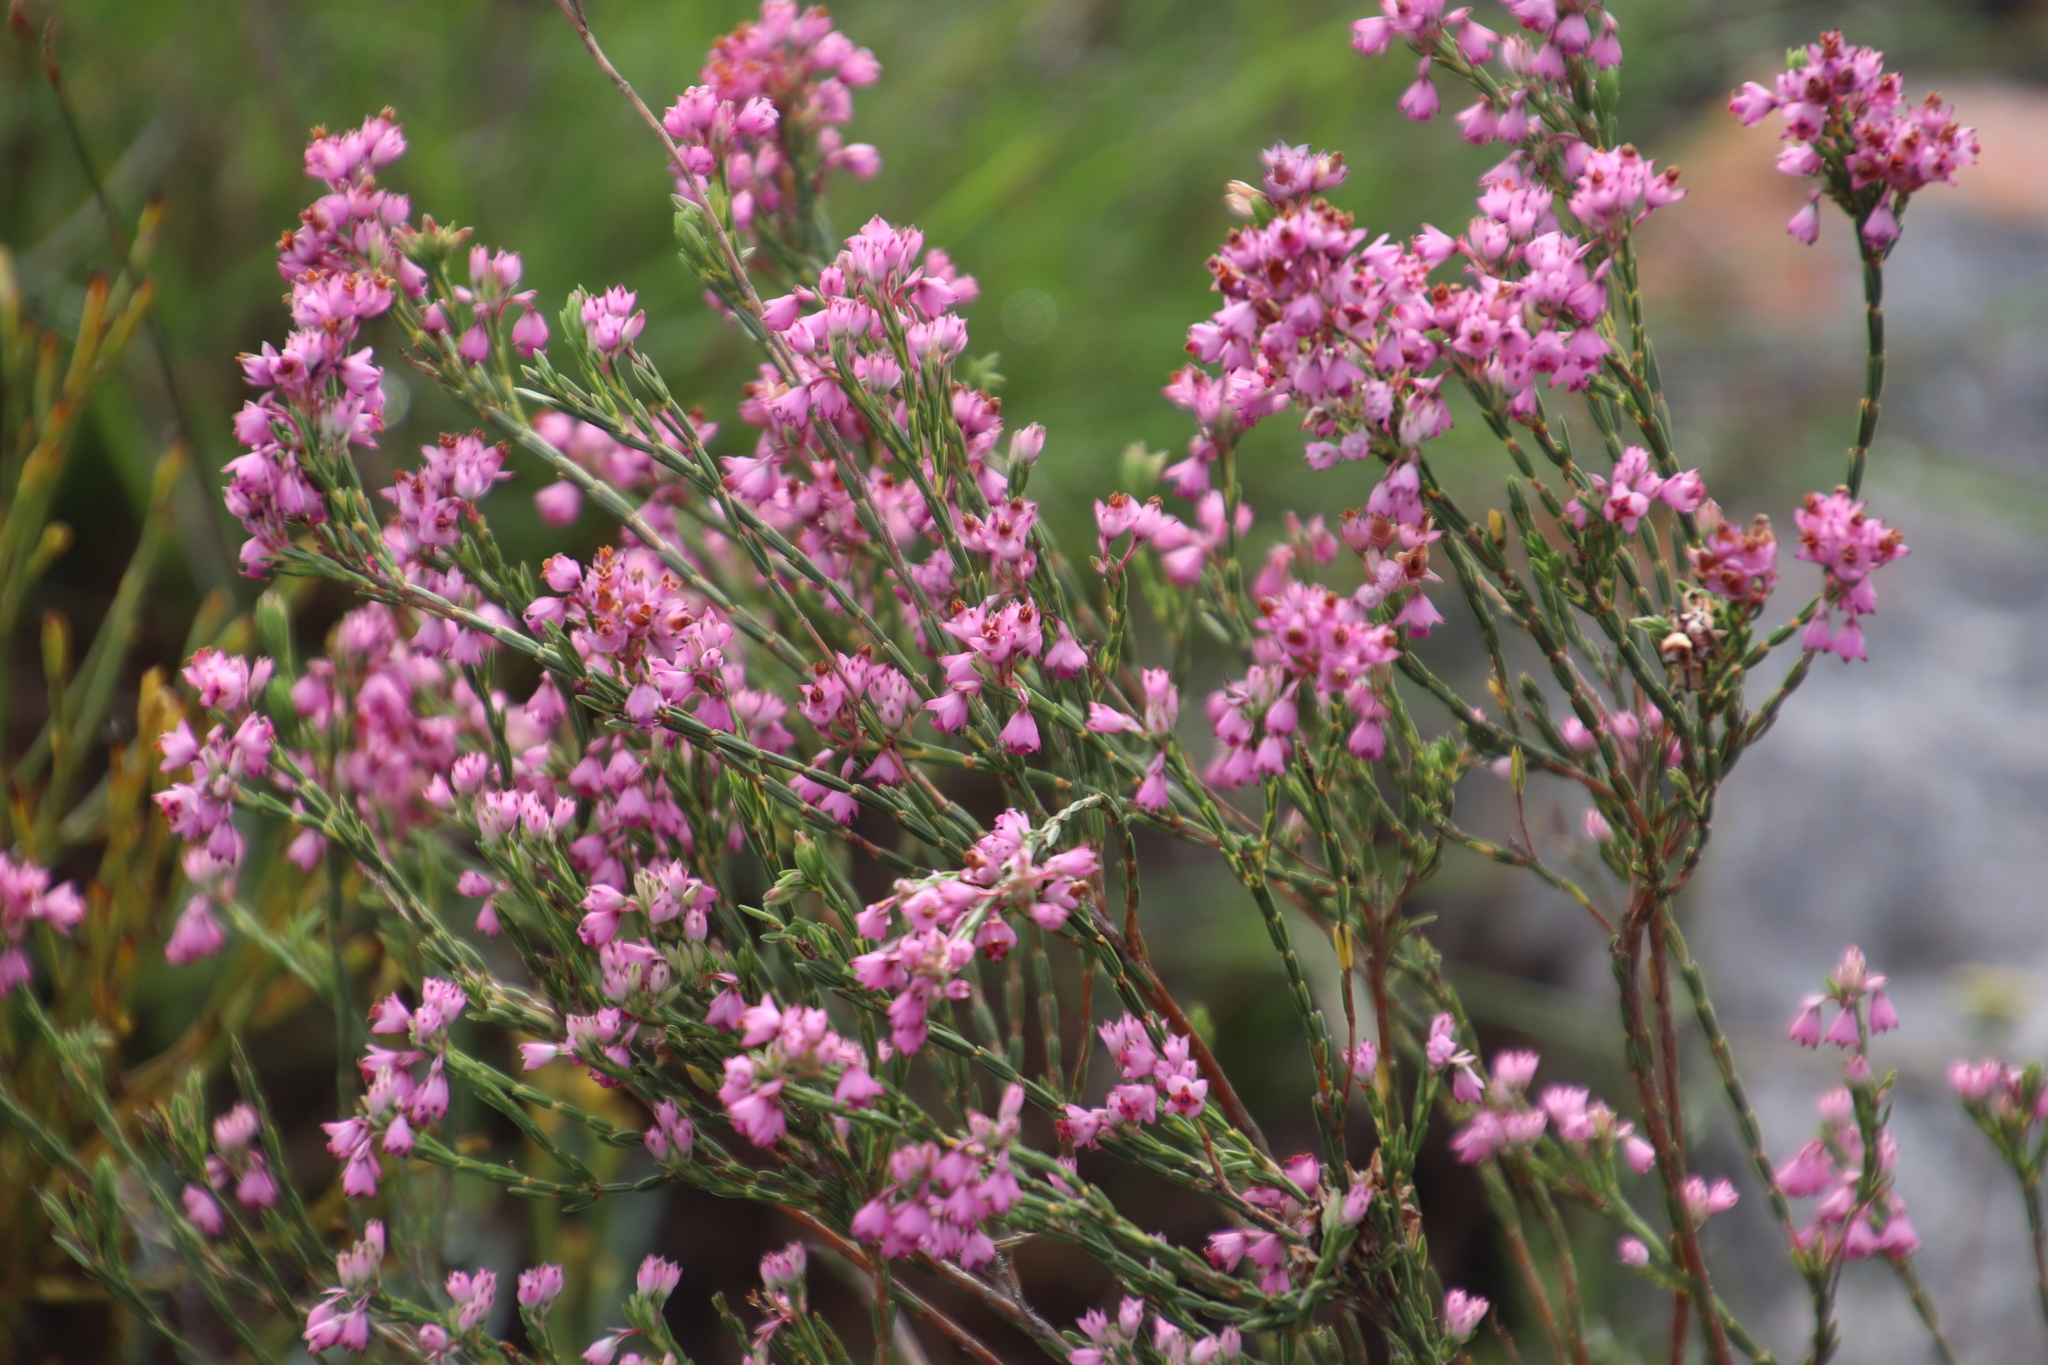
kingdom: Plantae
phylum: Tracheophyta
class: Magnoliopsida
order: Ericales
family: Ericaceae
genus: Erica
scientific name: Erica corifolia
